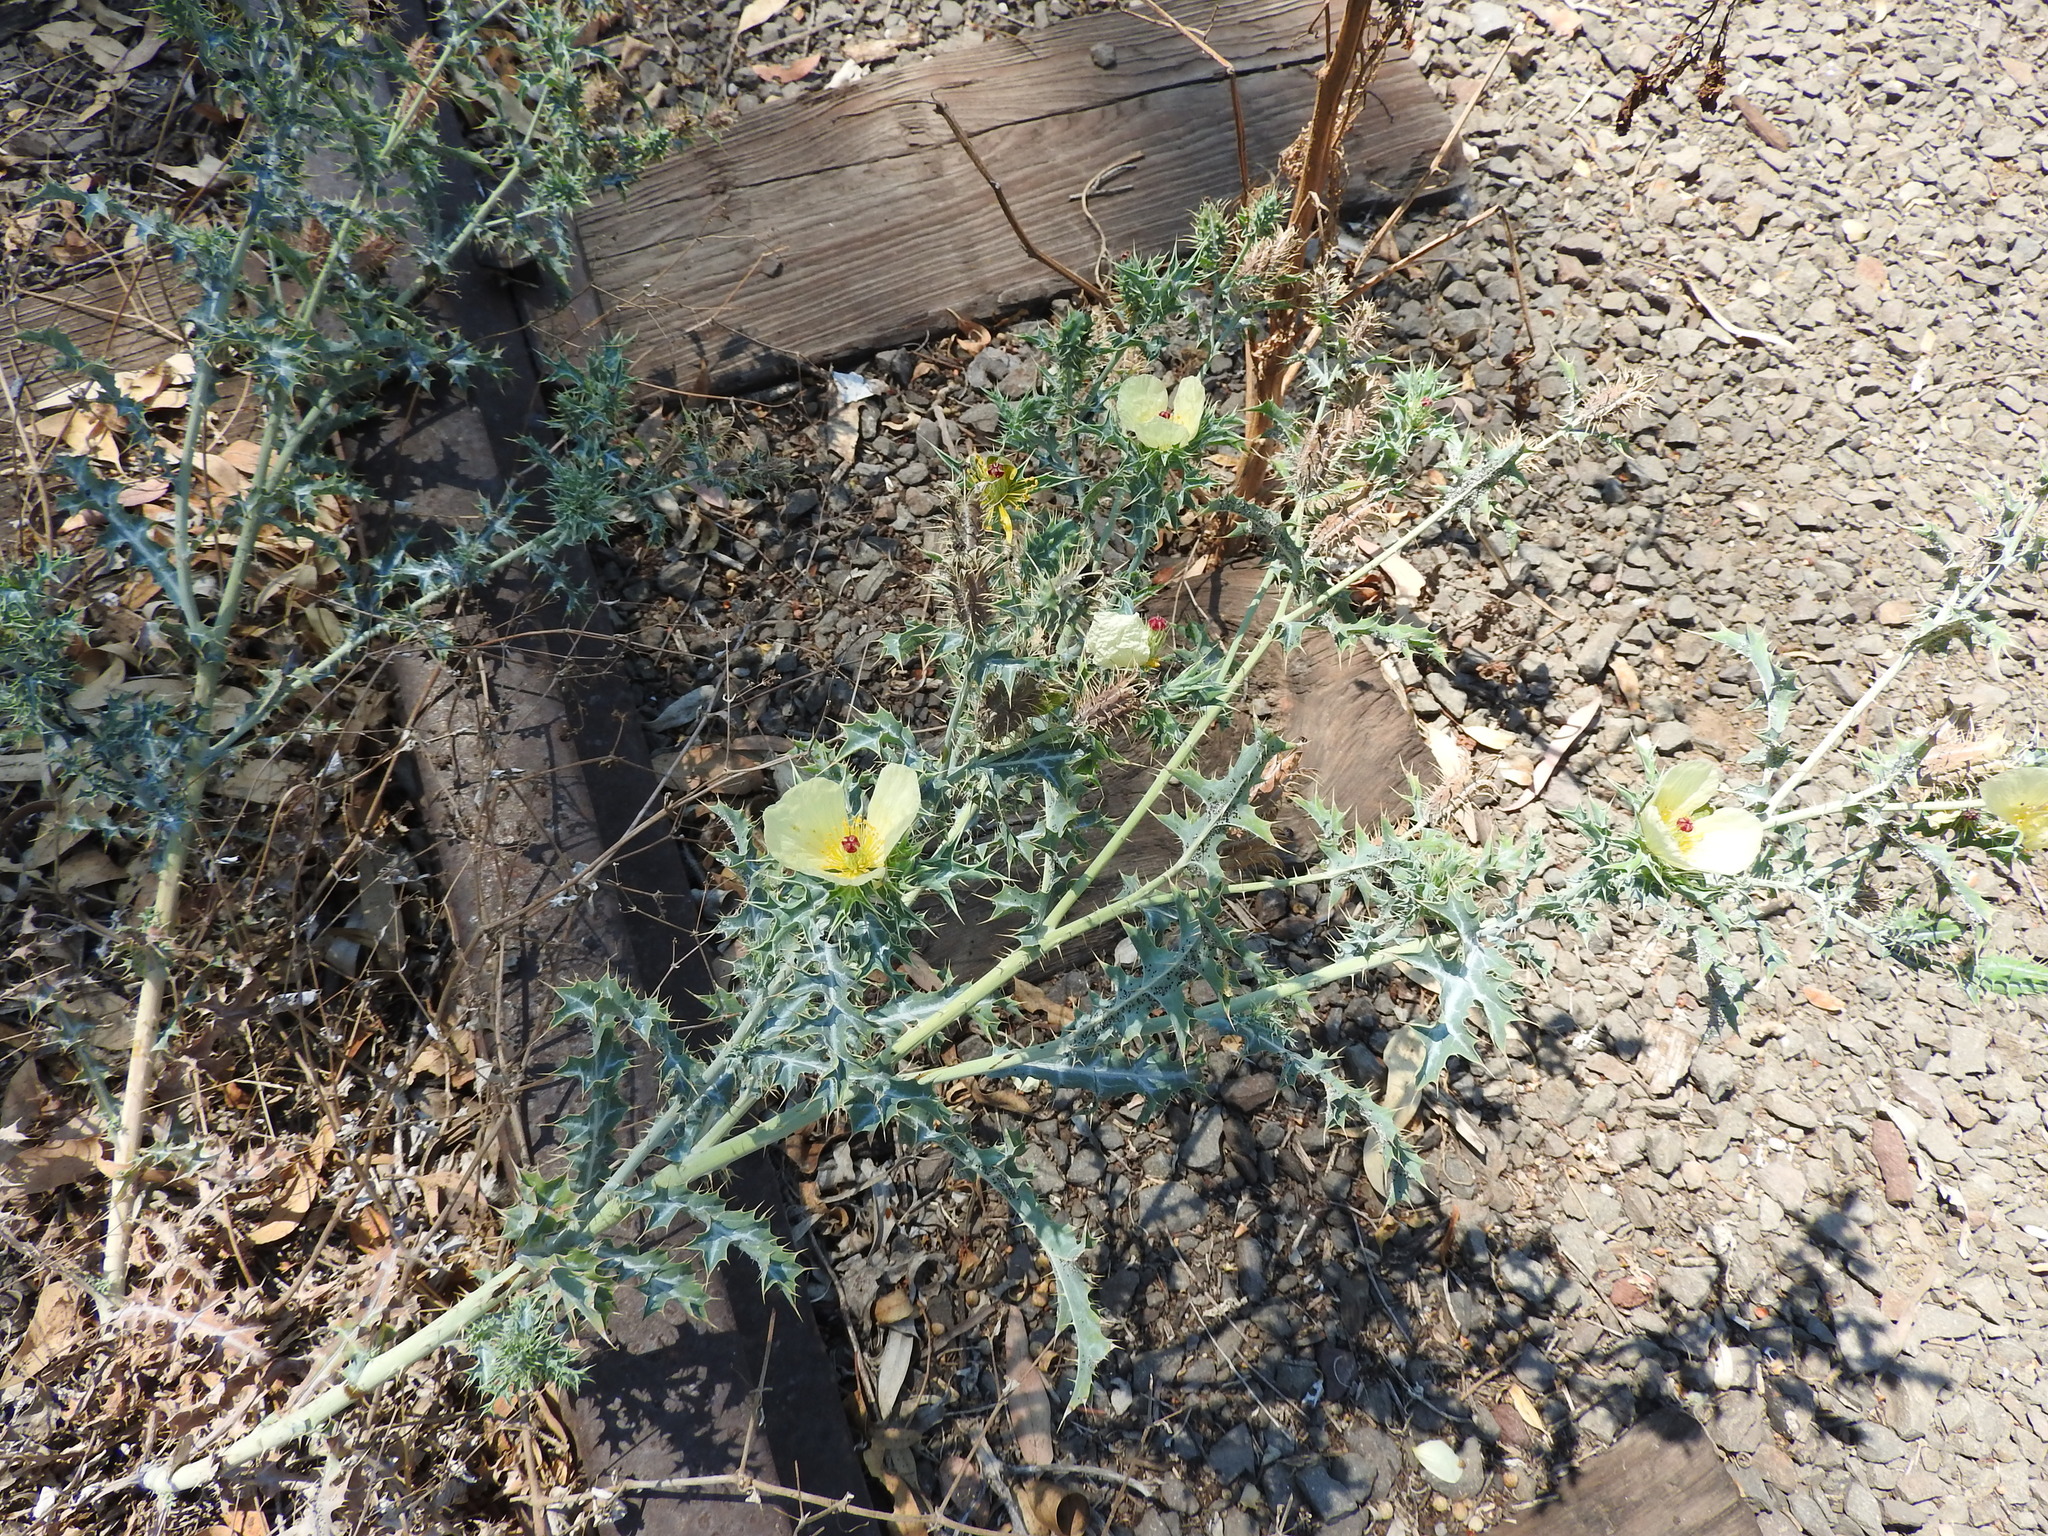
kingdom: Plantae
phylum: Tracheophyta
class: Magnoliopsida
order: Ranunculales
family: Papaveraceae
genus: Argemone
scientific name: Argemone ochroleuca
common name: White-flower mexican-poppy
